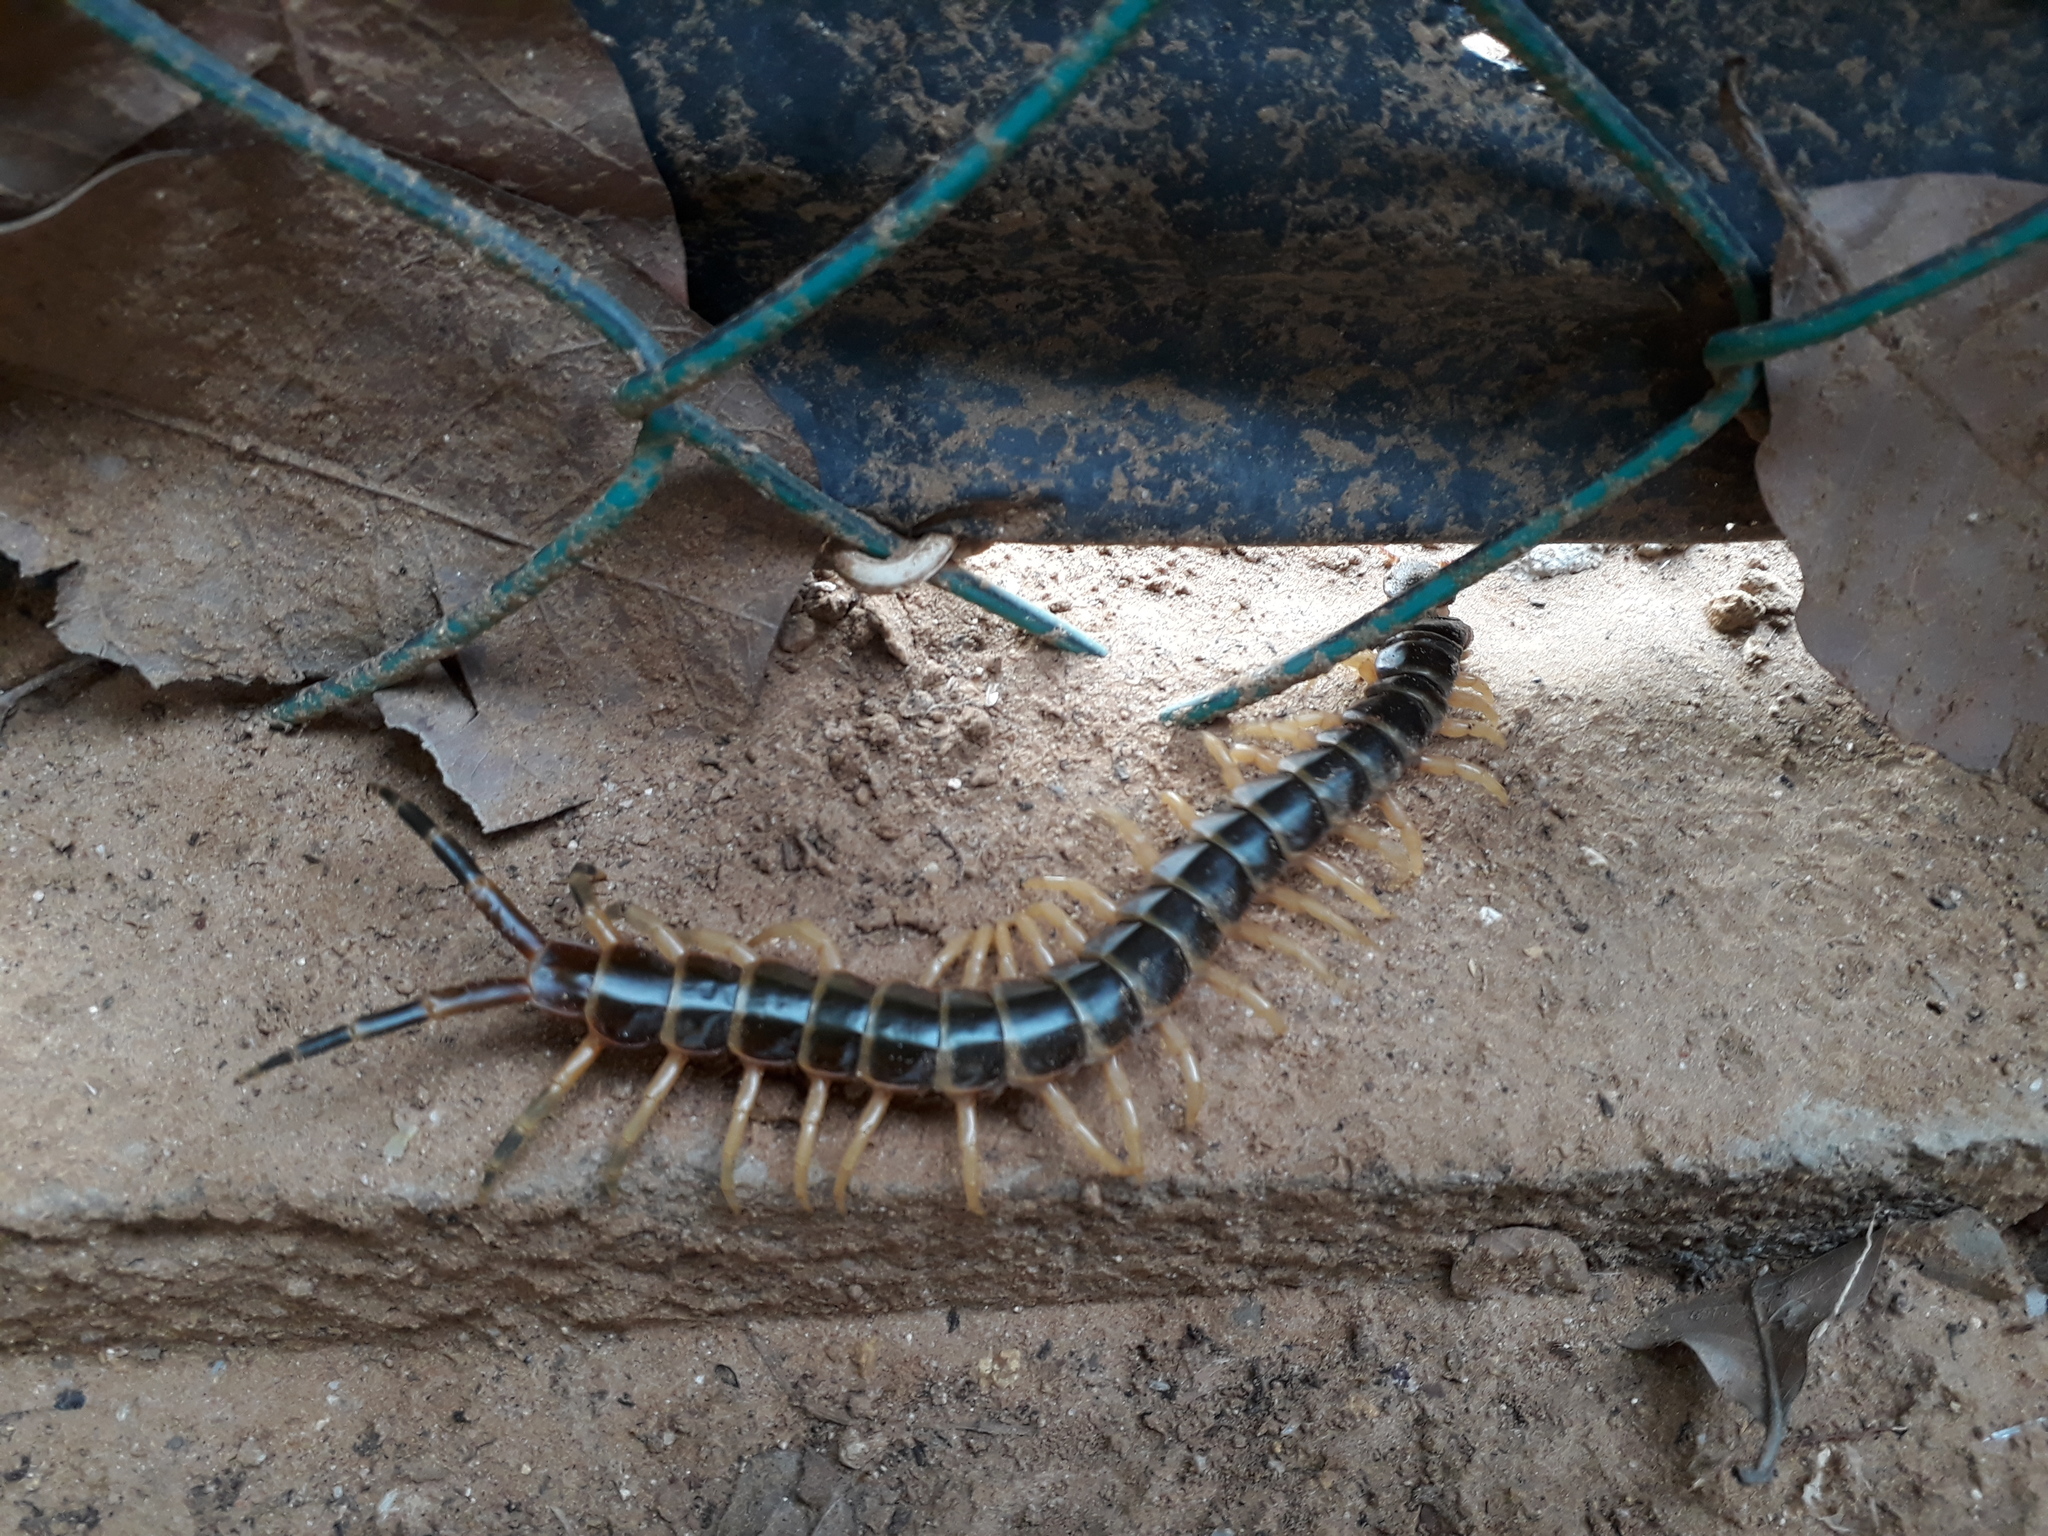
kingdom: Animalia
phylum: Arthropoda
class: Chilopoda
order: Scolopendromorpha
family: Scolopendridae
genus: Scolopendra
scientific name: Scolopendra gigantea
